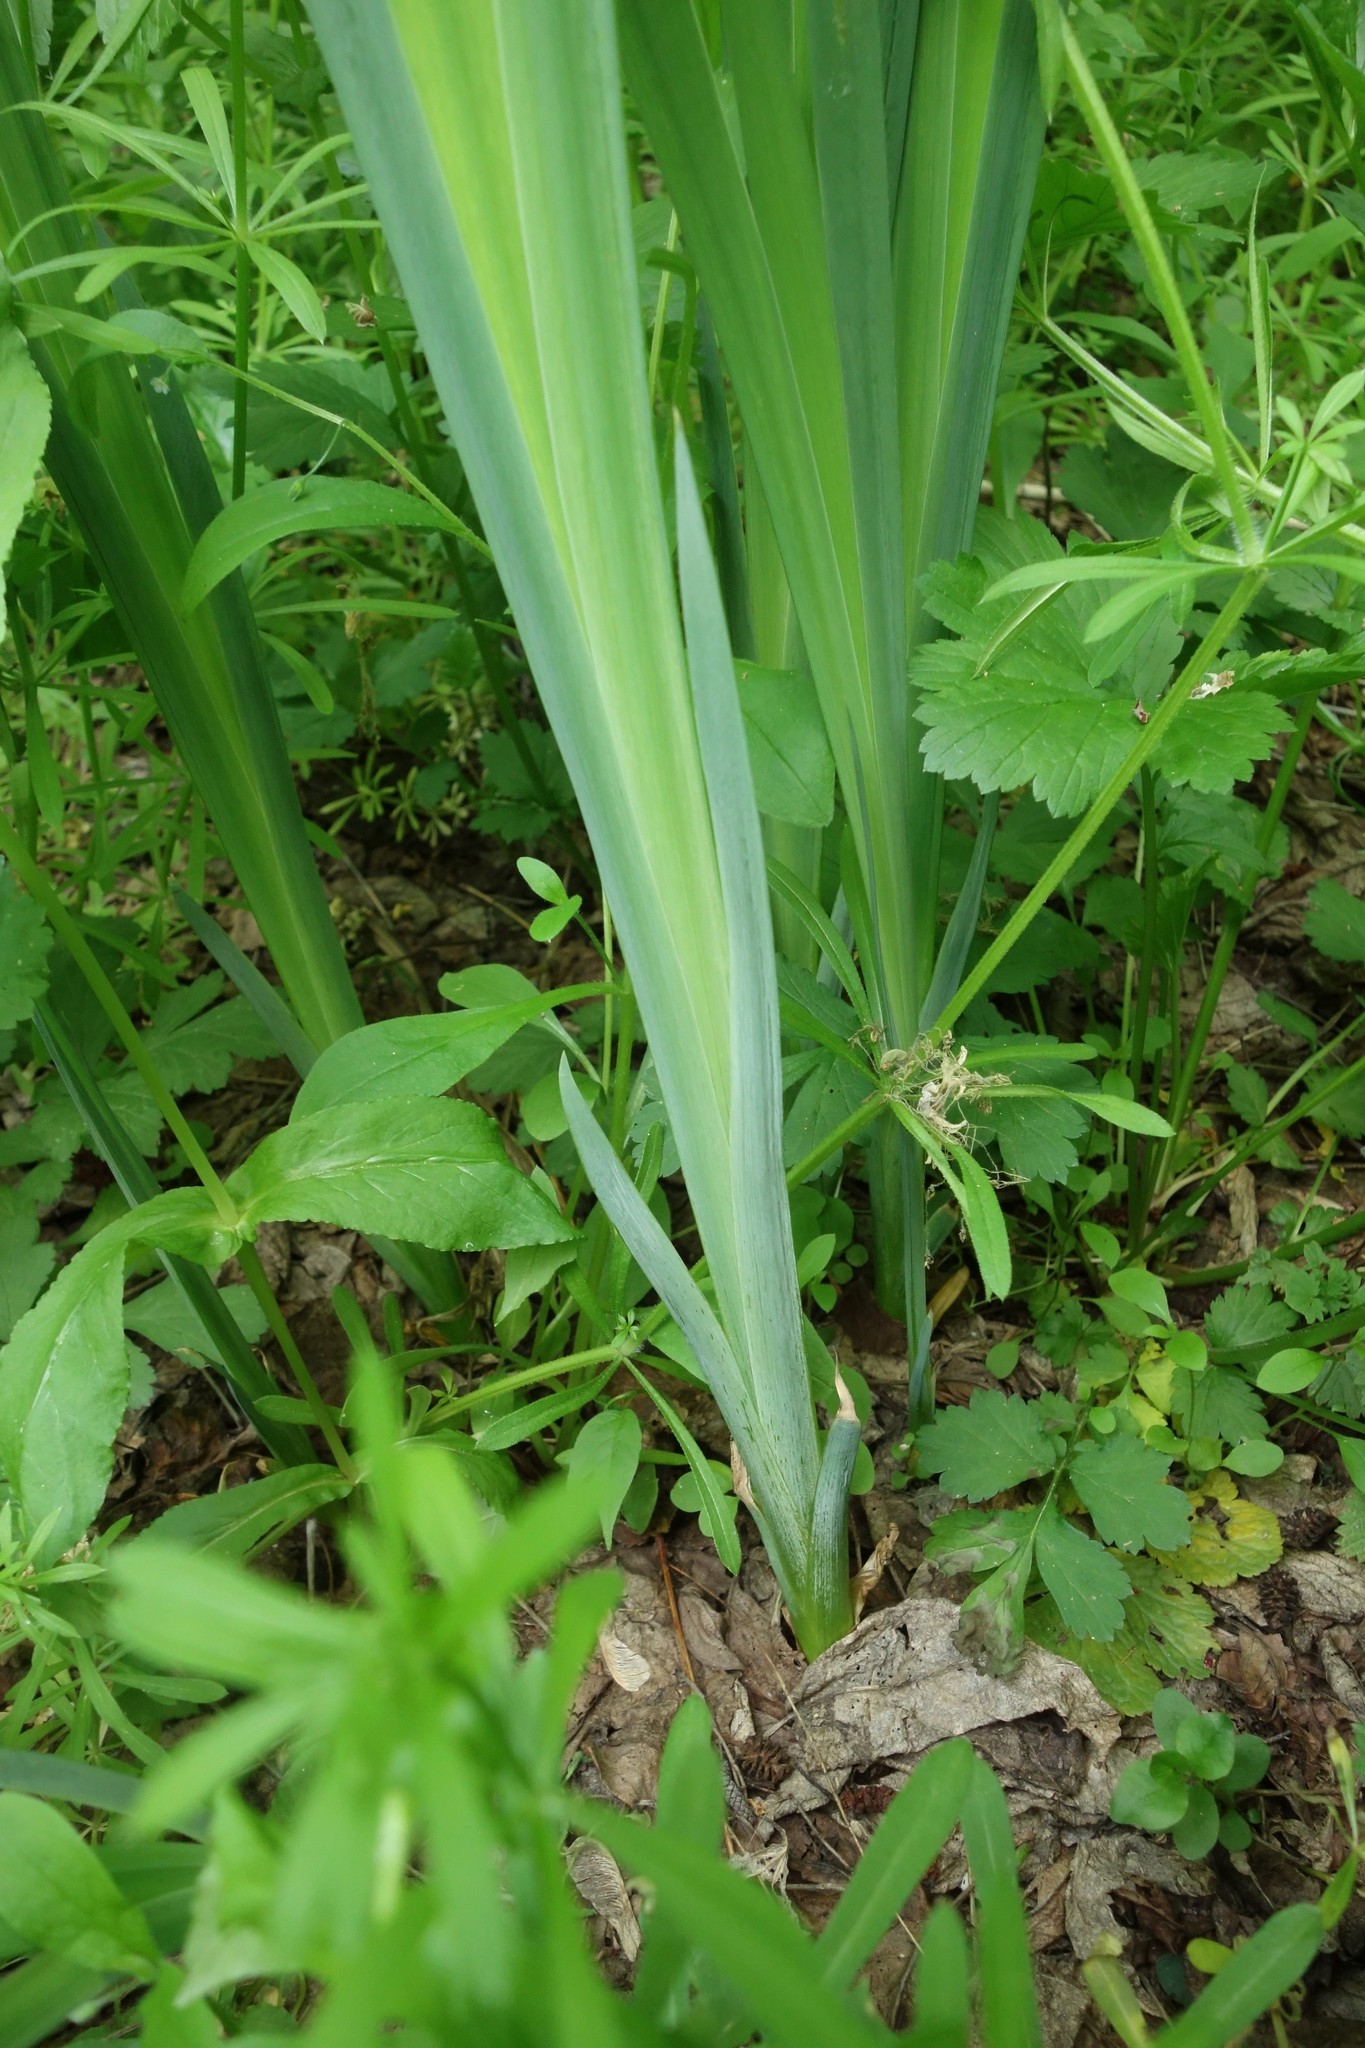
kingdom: Plantae
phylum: Tracheophyta
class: Liliopsida
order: Asparagales
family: Iridaceae
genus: Iris
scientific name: Iris pseudacorus
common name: Yellow flag
